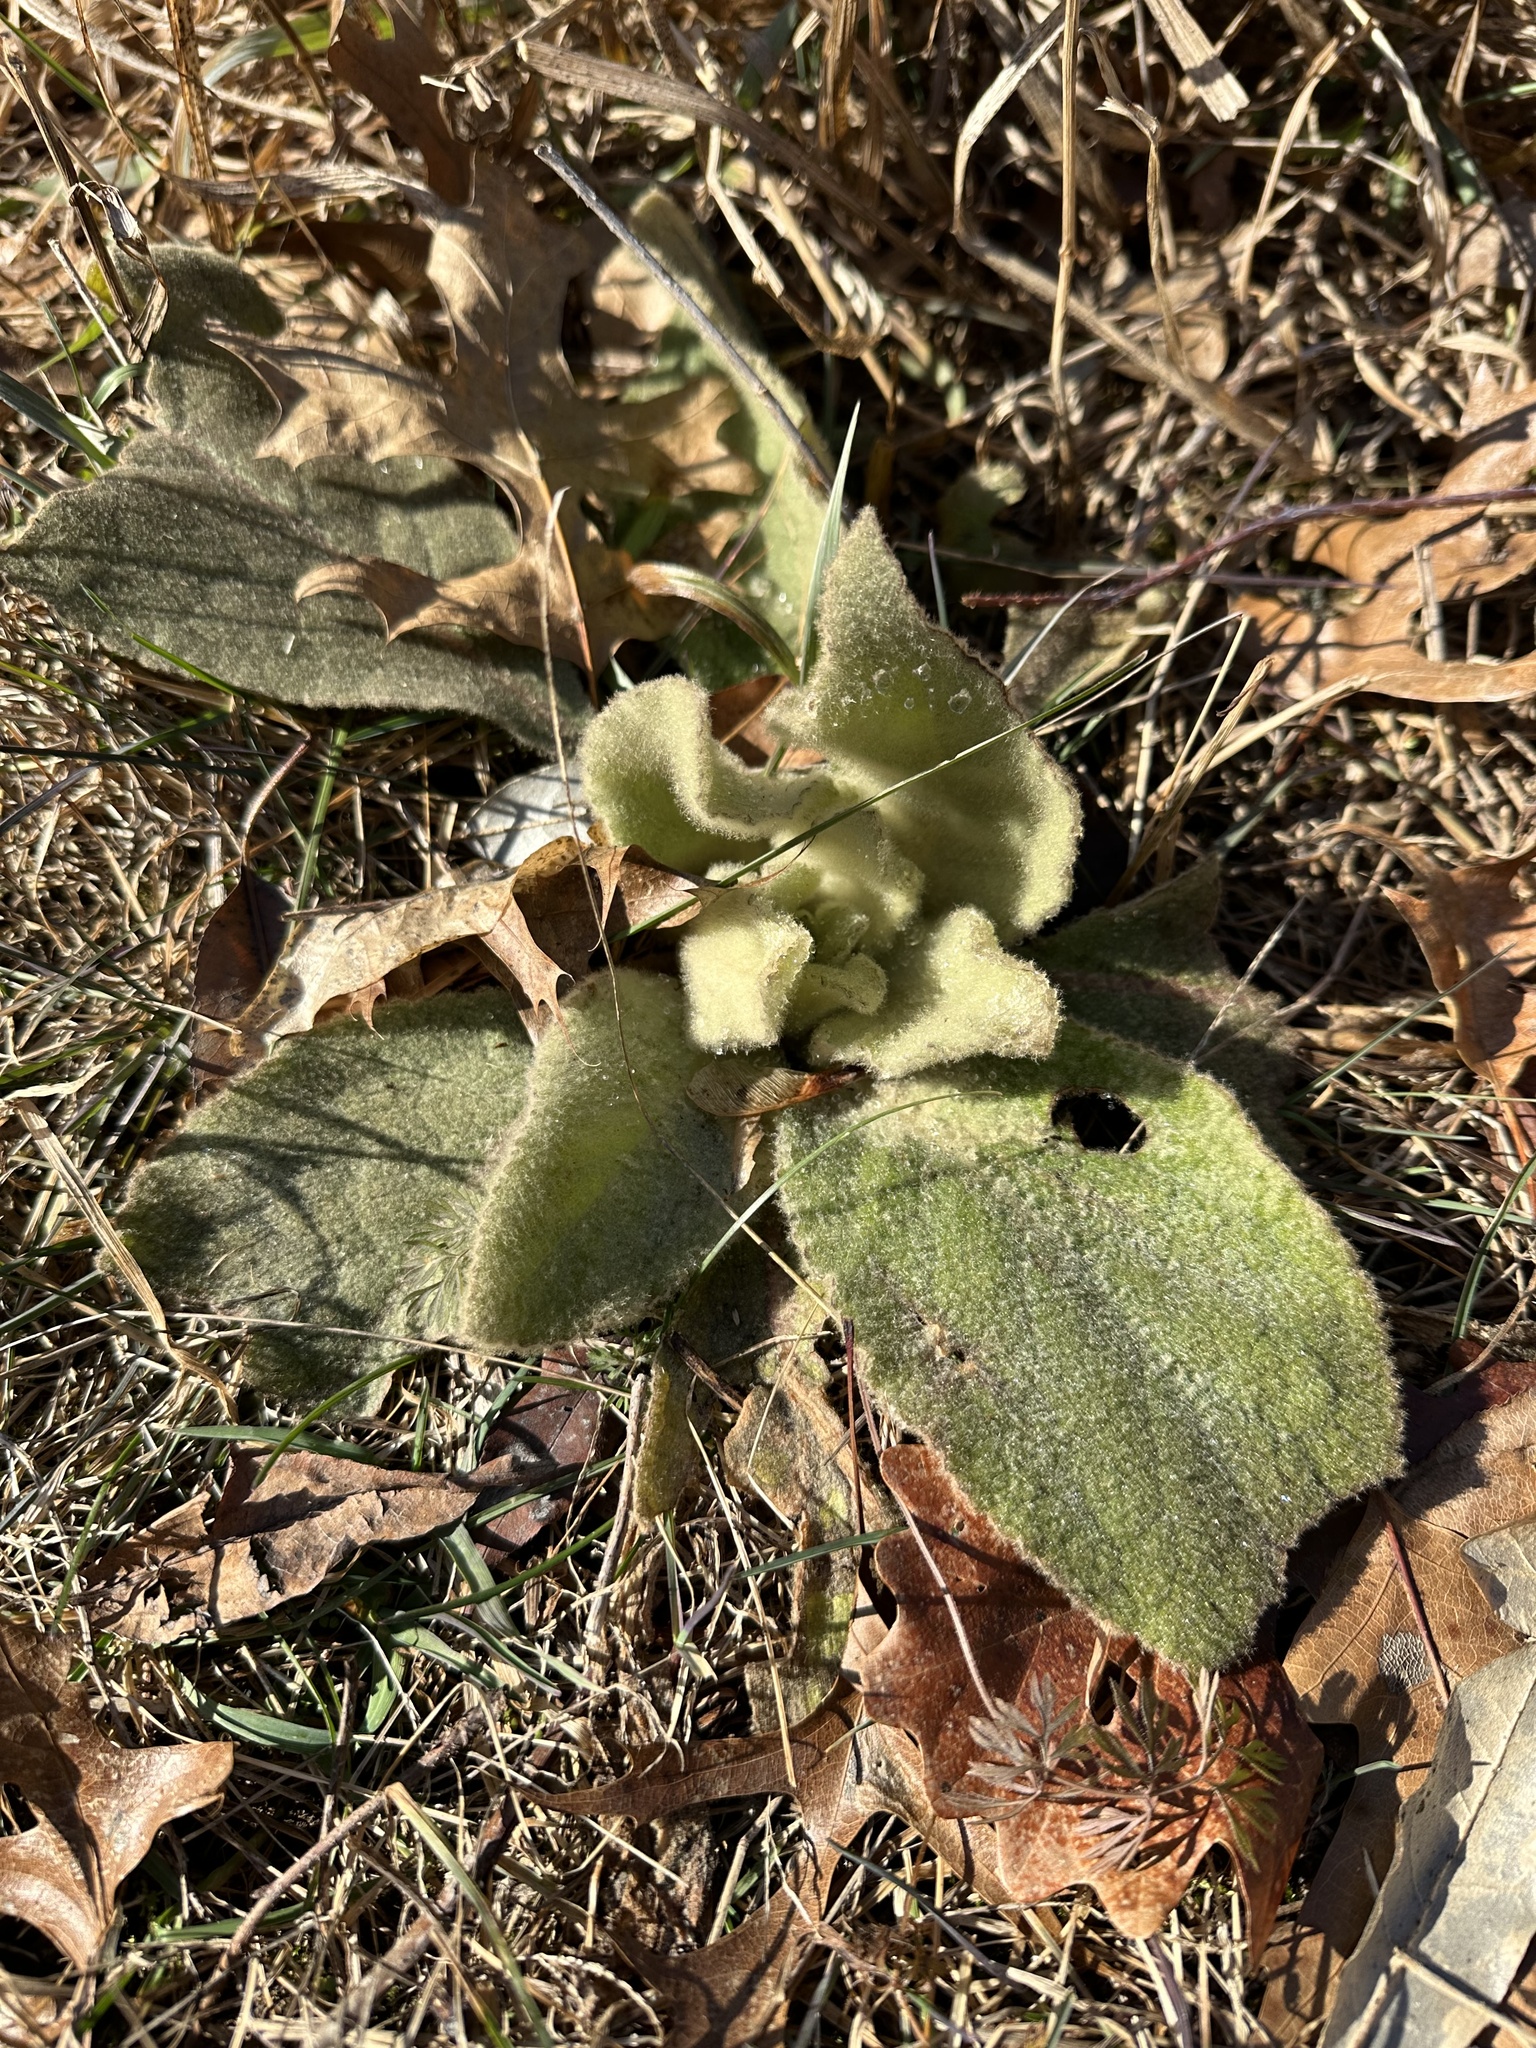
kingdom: Plantae
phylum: Tracheophyta
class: Magnoliopsida
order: Lamiales
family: Scrophulariaceae
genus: Verbascum
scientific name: Verbascum thapsus
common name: Common mullein
